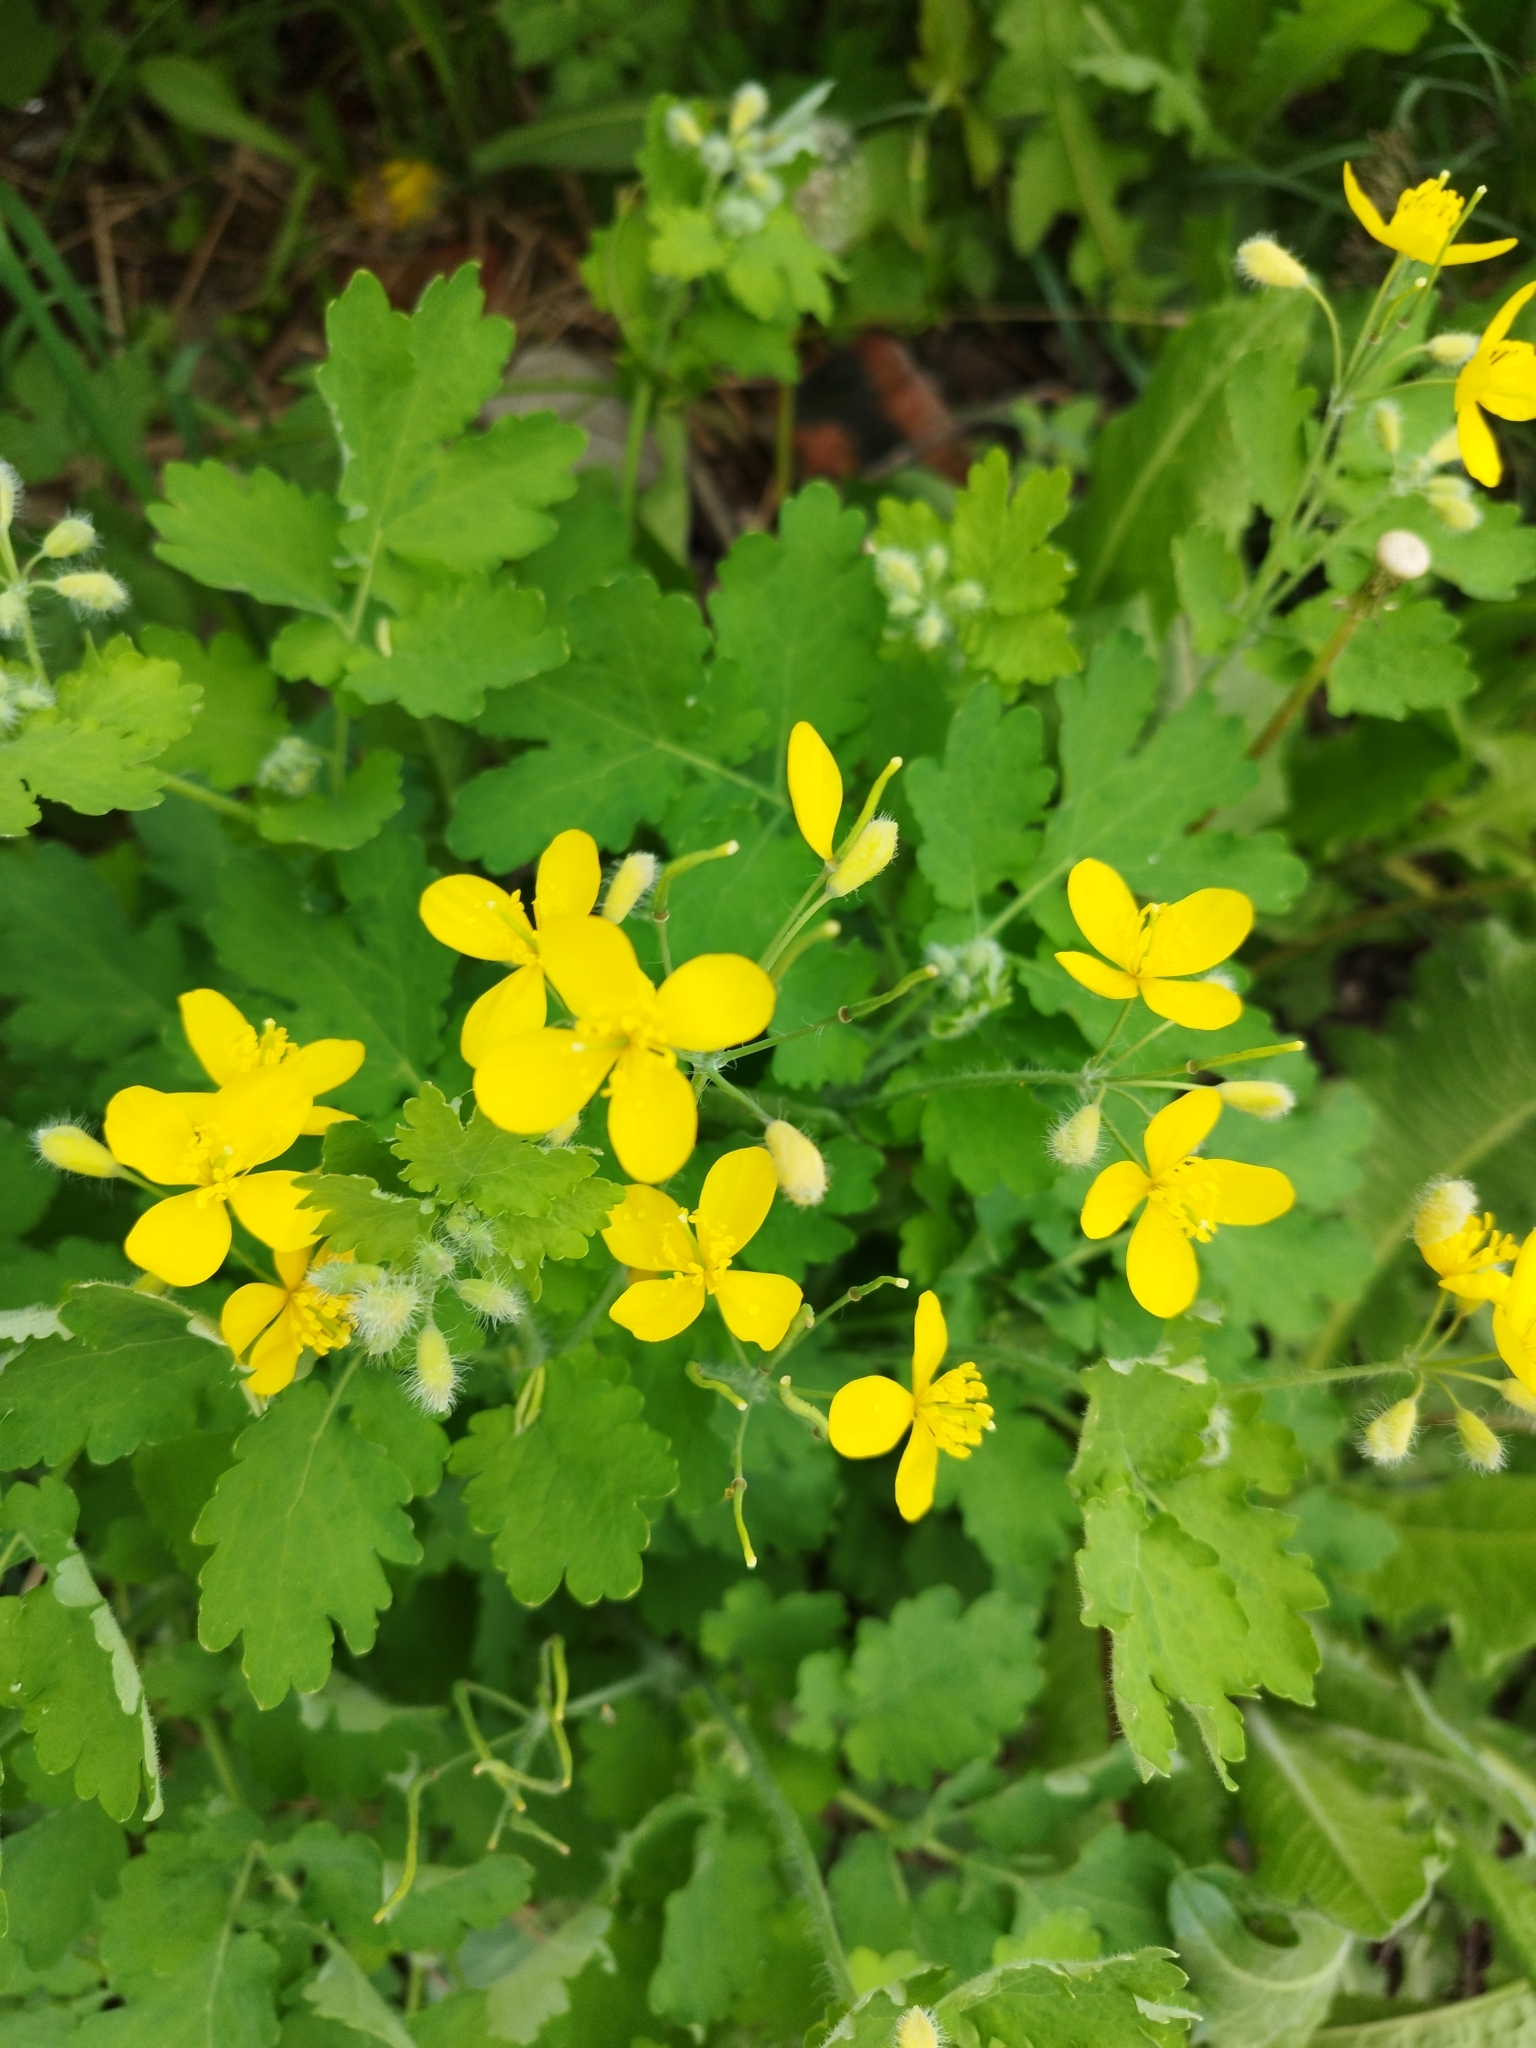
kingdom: Plantae
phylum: Tracheophyta
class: Magnoliopsida
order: Ranunculales
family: Papaveraceae
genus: Chelidonium
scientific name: Chelidonium majus
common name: Greater celandine
